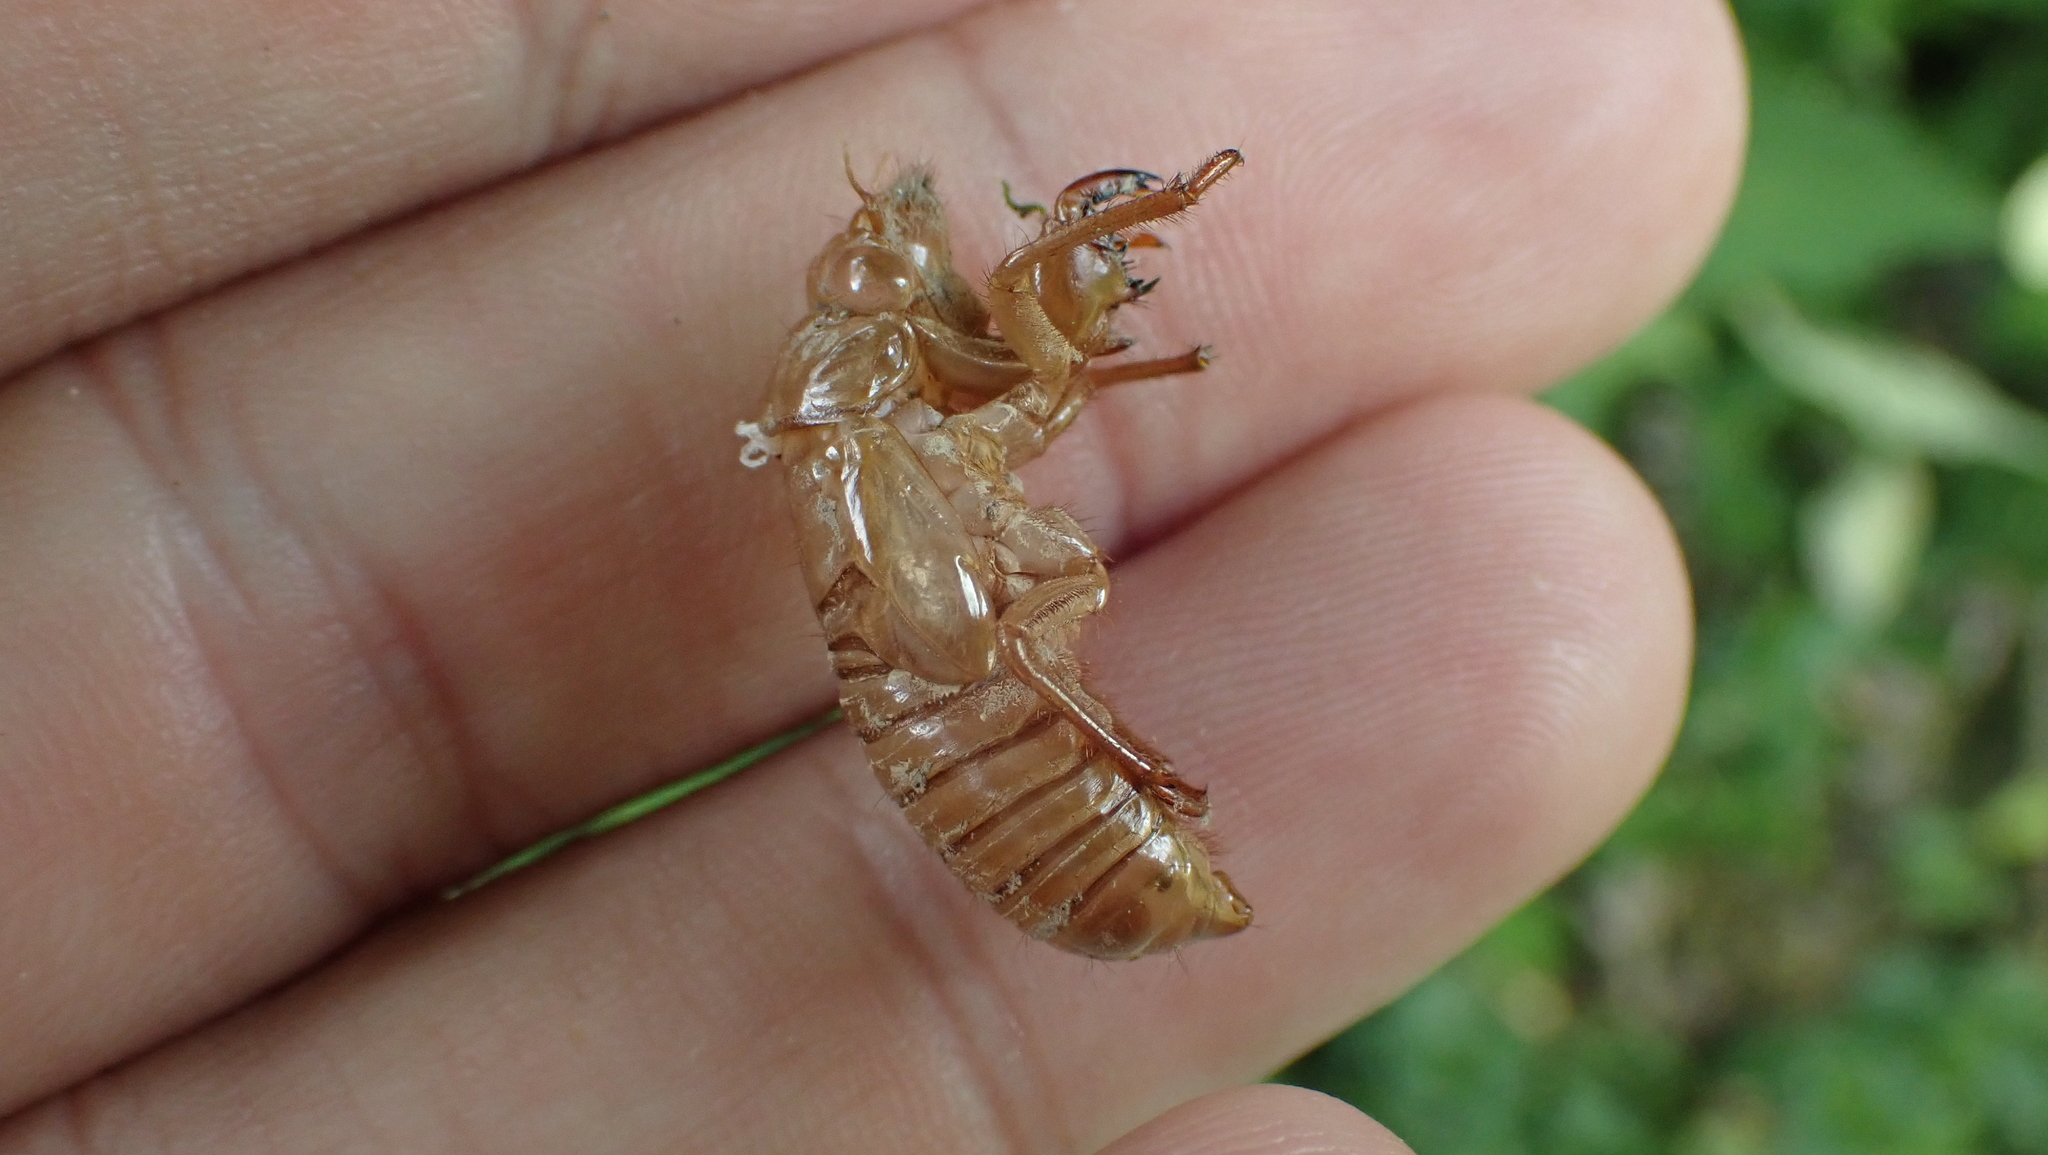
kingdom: Animalia
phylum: Arthropoda
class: Insecta
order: Hemiptera
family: Cicadidae
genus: Magicicada
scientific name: Magicicada
